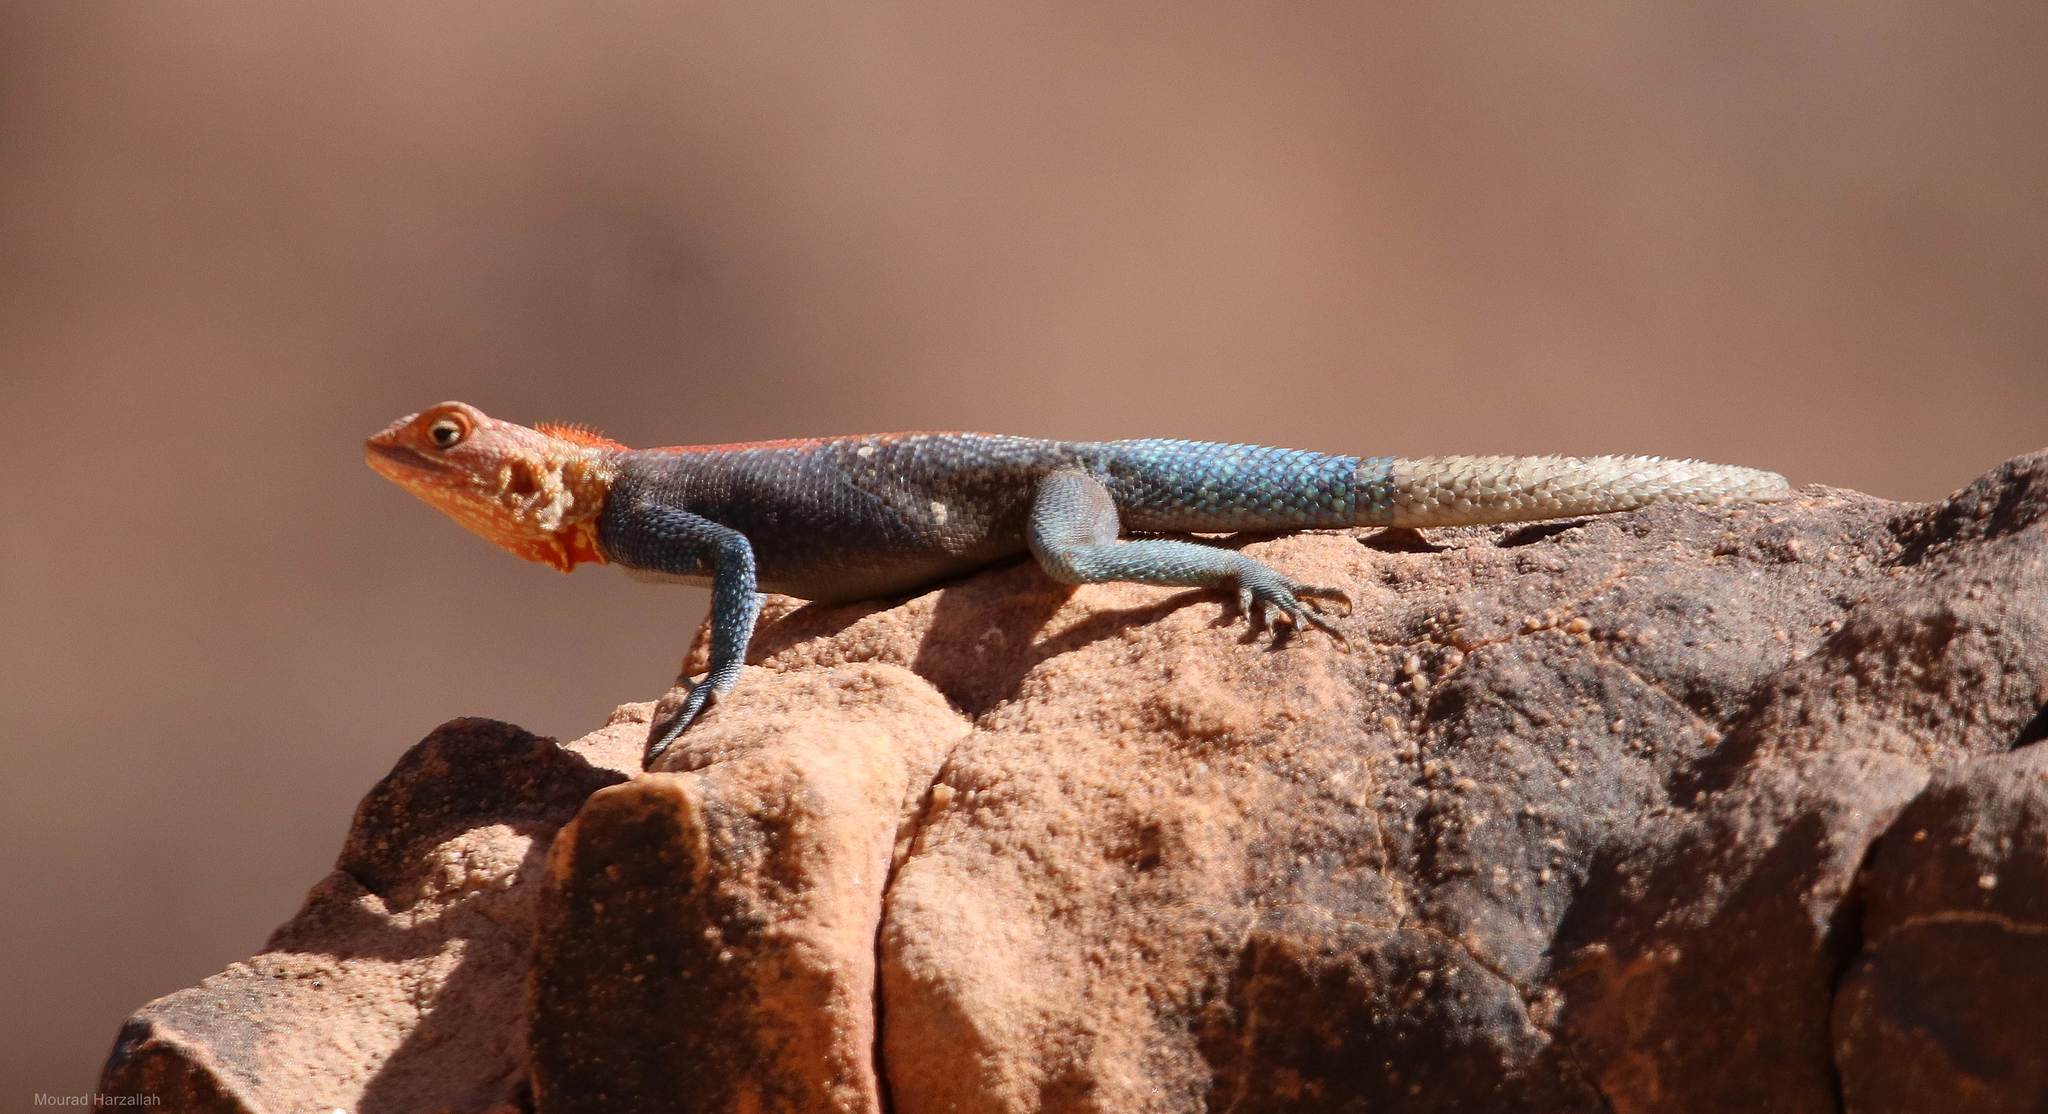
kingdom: Animalia
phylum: Chordata
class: Squamata
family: Agamidae
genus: Agama
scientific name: Agama tassiliensis
